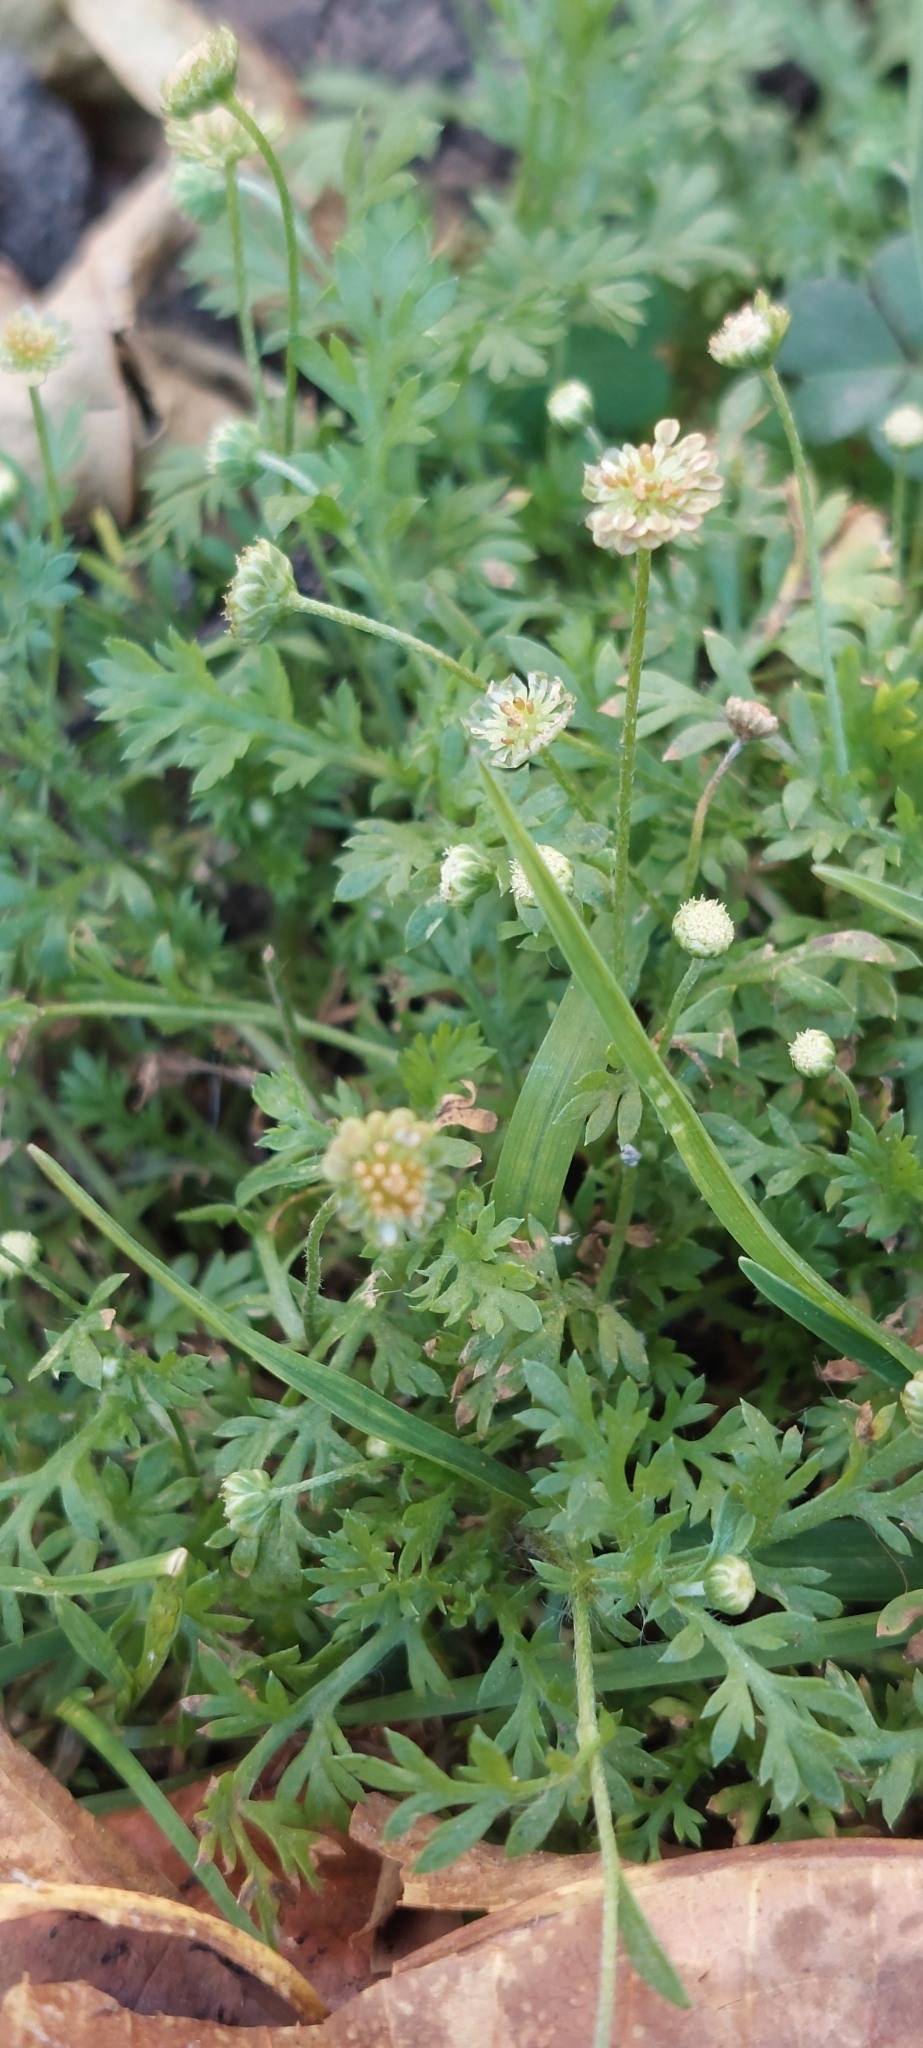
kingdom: Plantae
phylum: Tracheophyta
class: Magnoliopsida
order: Asterales
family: Asteraceae
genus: Cotula
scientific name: Cotula australis
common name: Australian waterbuttons
